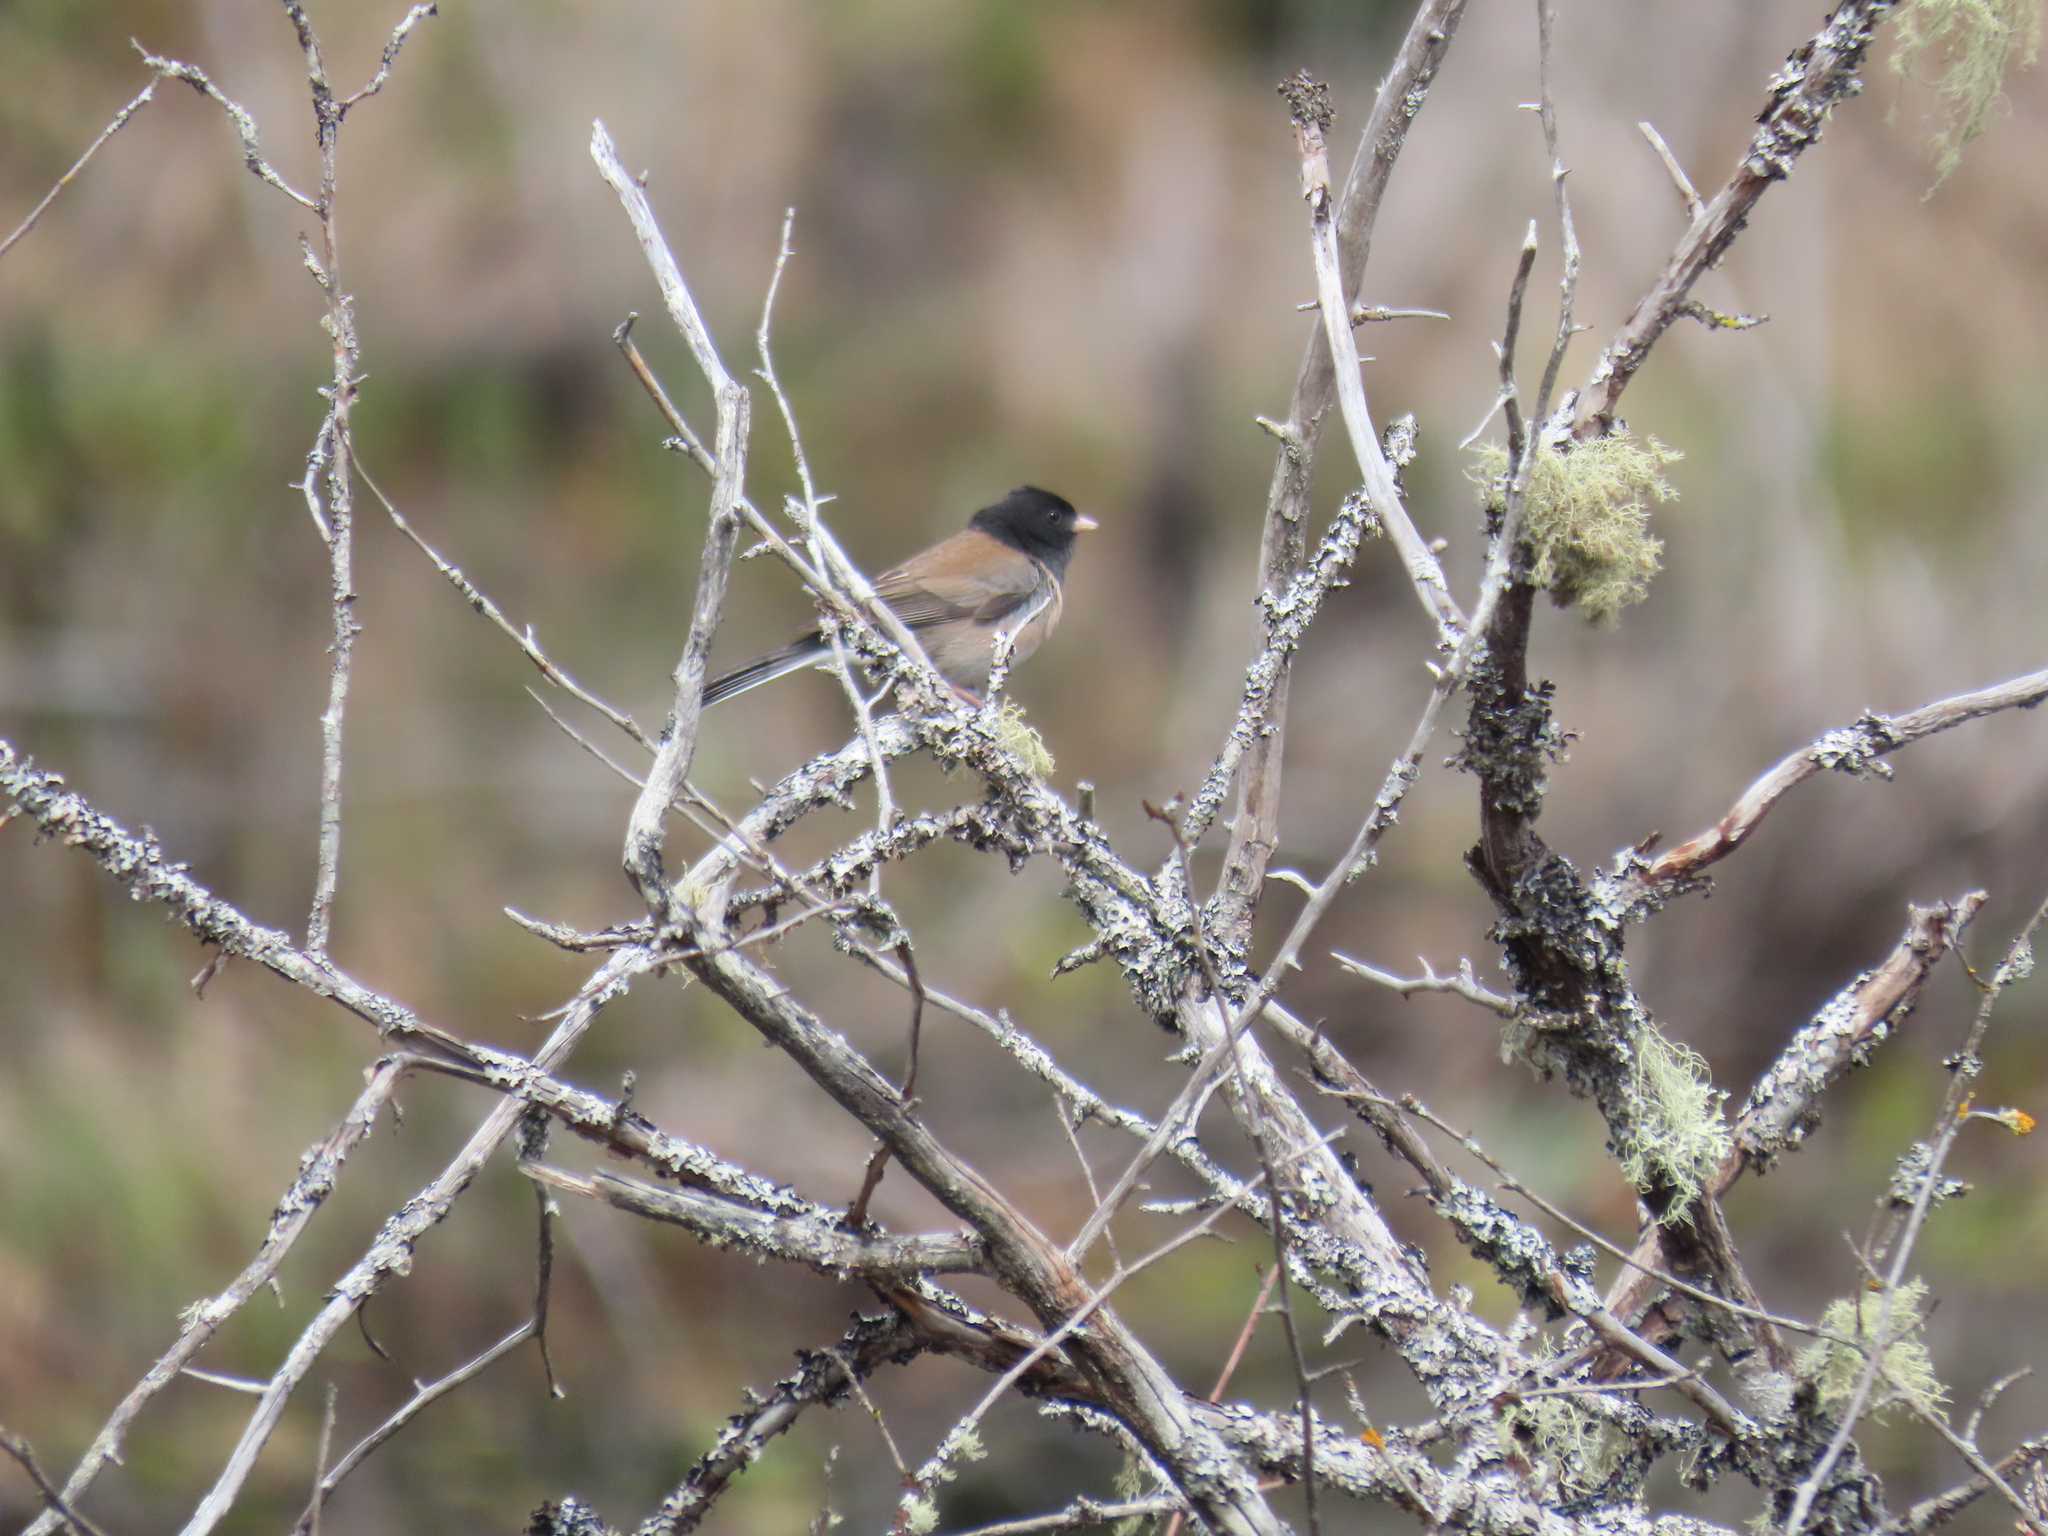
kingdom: Animalia
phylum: Chordata
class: Aves
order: Passeriformes
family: Passerellidae
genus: Junco
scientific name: Junco hyemalis
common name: Dark-eyed junco
